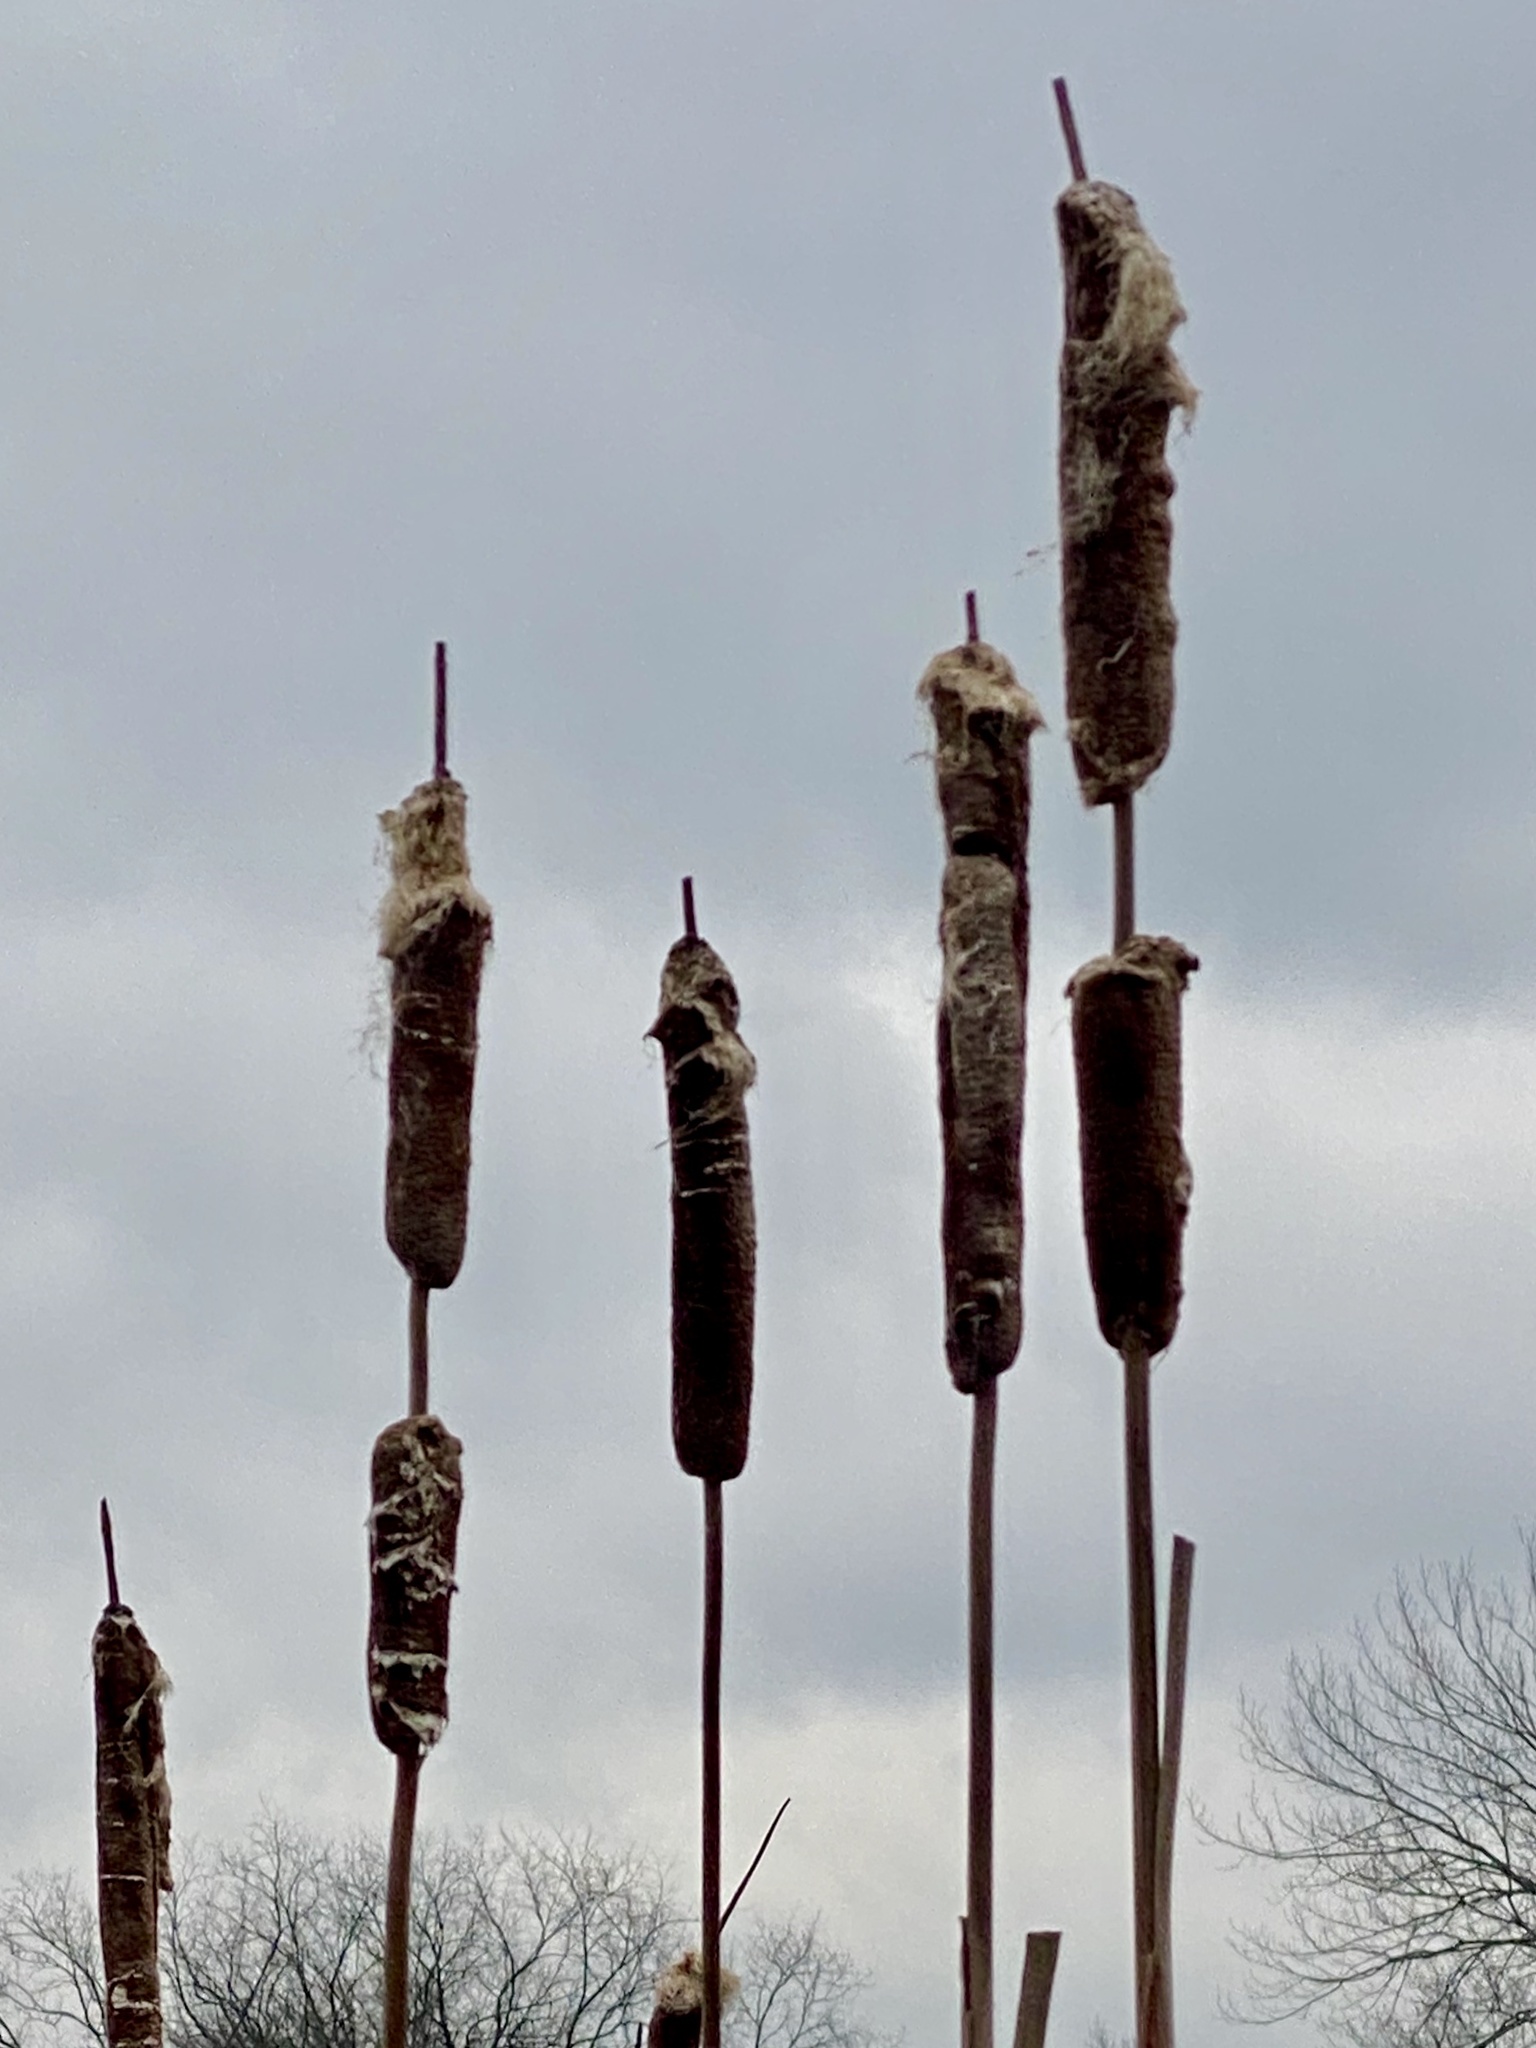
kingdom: Plantae
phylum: Tracheophyta
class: Liliopsida
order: Poales
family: Typhaceae
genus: Typha
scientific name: Typha
